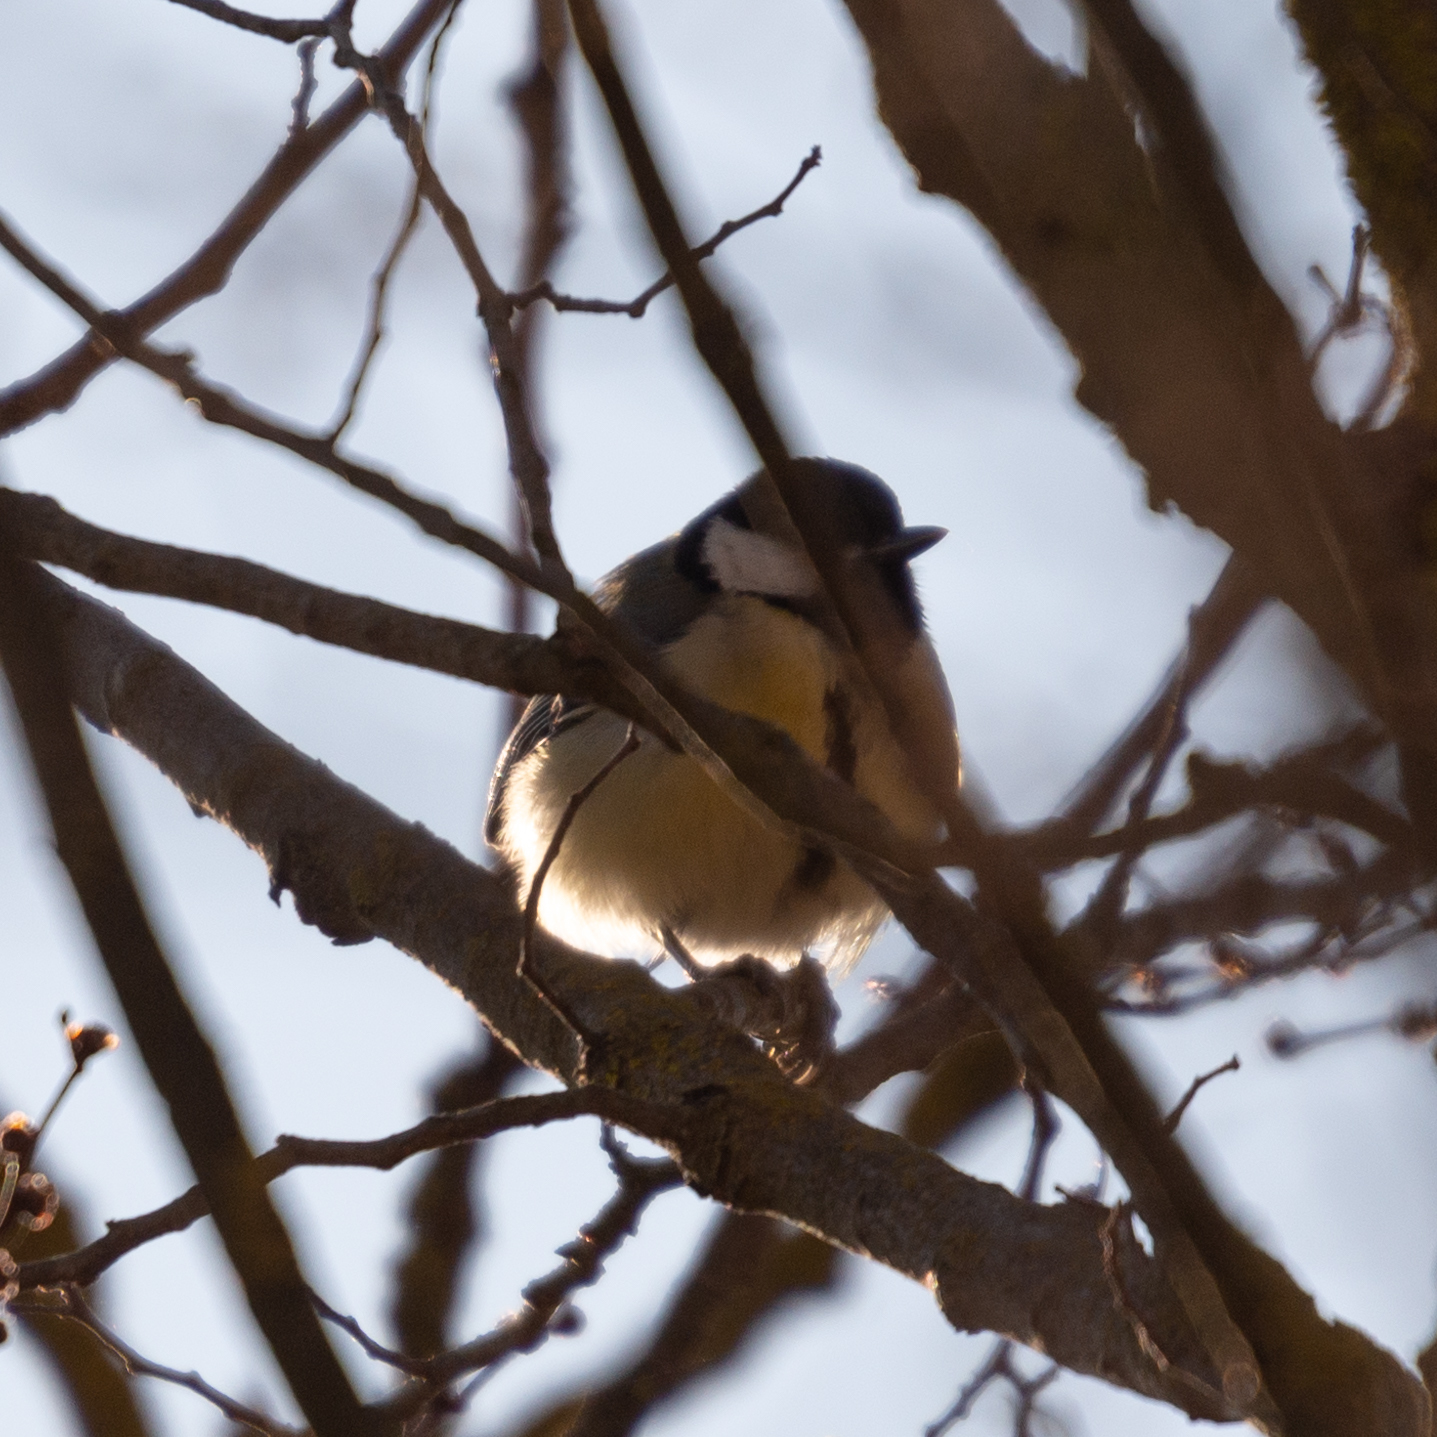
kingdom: Animalia
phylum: Chordata
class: Aves
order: Passeriformes
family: Paridae
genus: Parus
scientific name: Parus major
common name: Great tit
